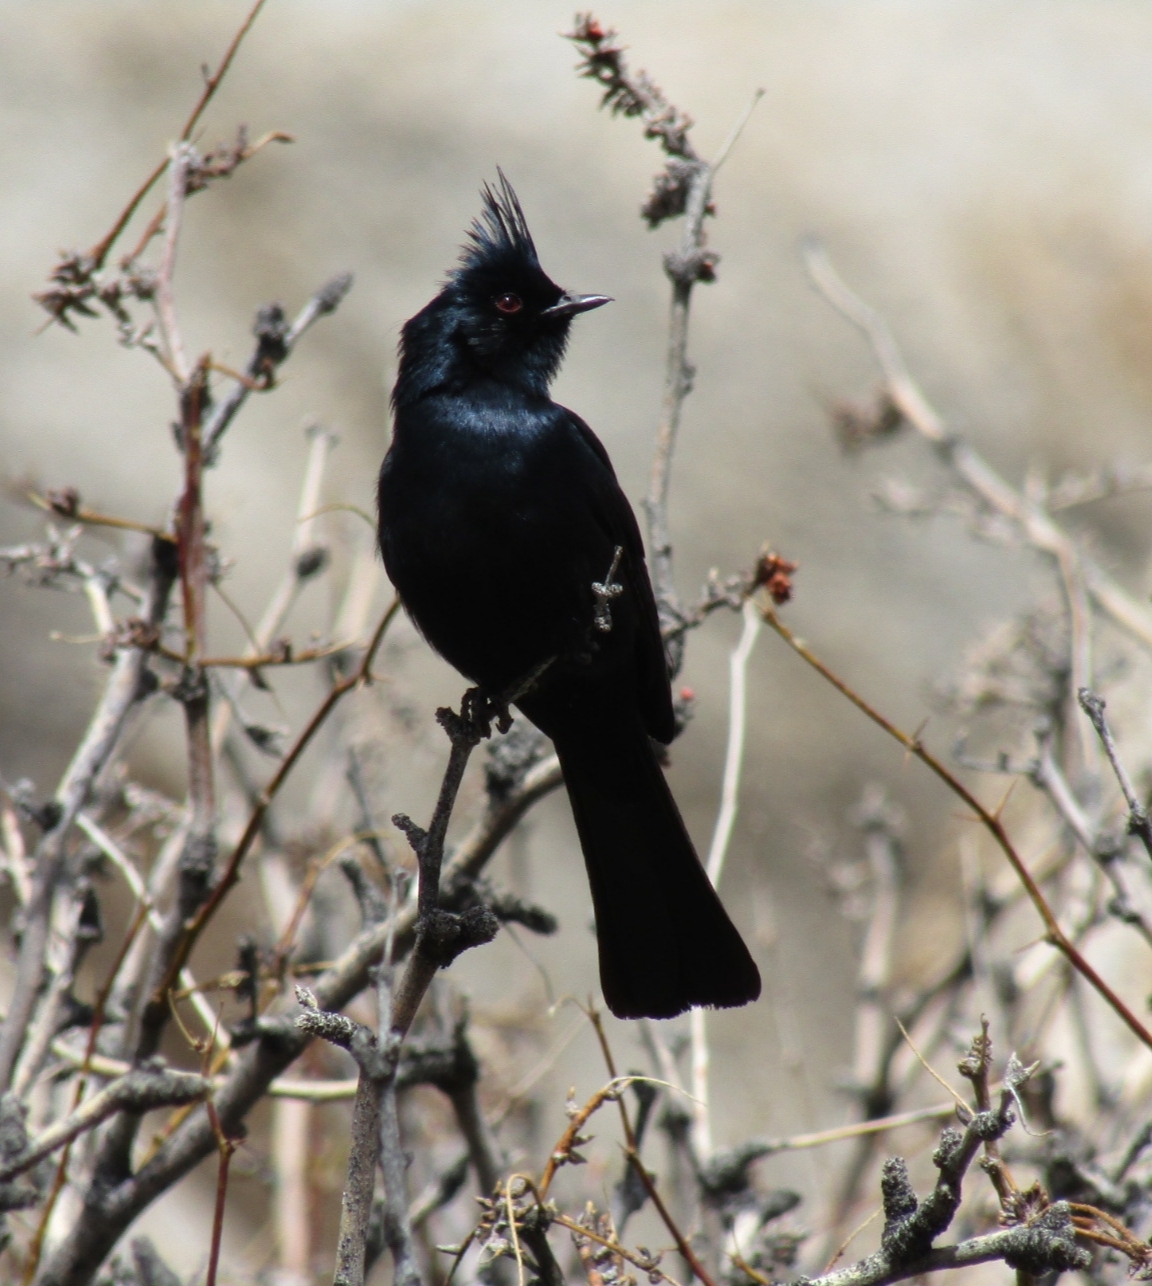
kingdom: Animalia
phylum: Chordata
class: Aves
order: Passeriformes
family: Ptilogonatidae
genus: Phainopepla
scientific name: Phainopepla nitens
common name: Phainopepla
